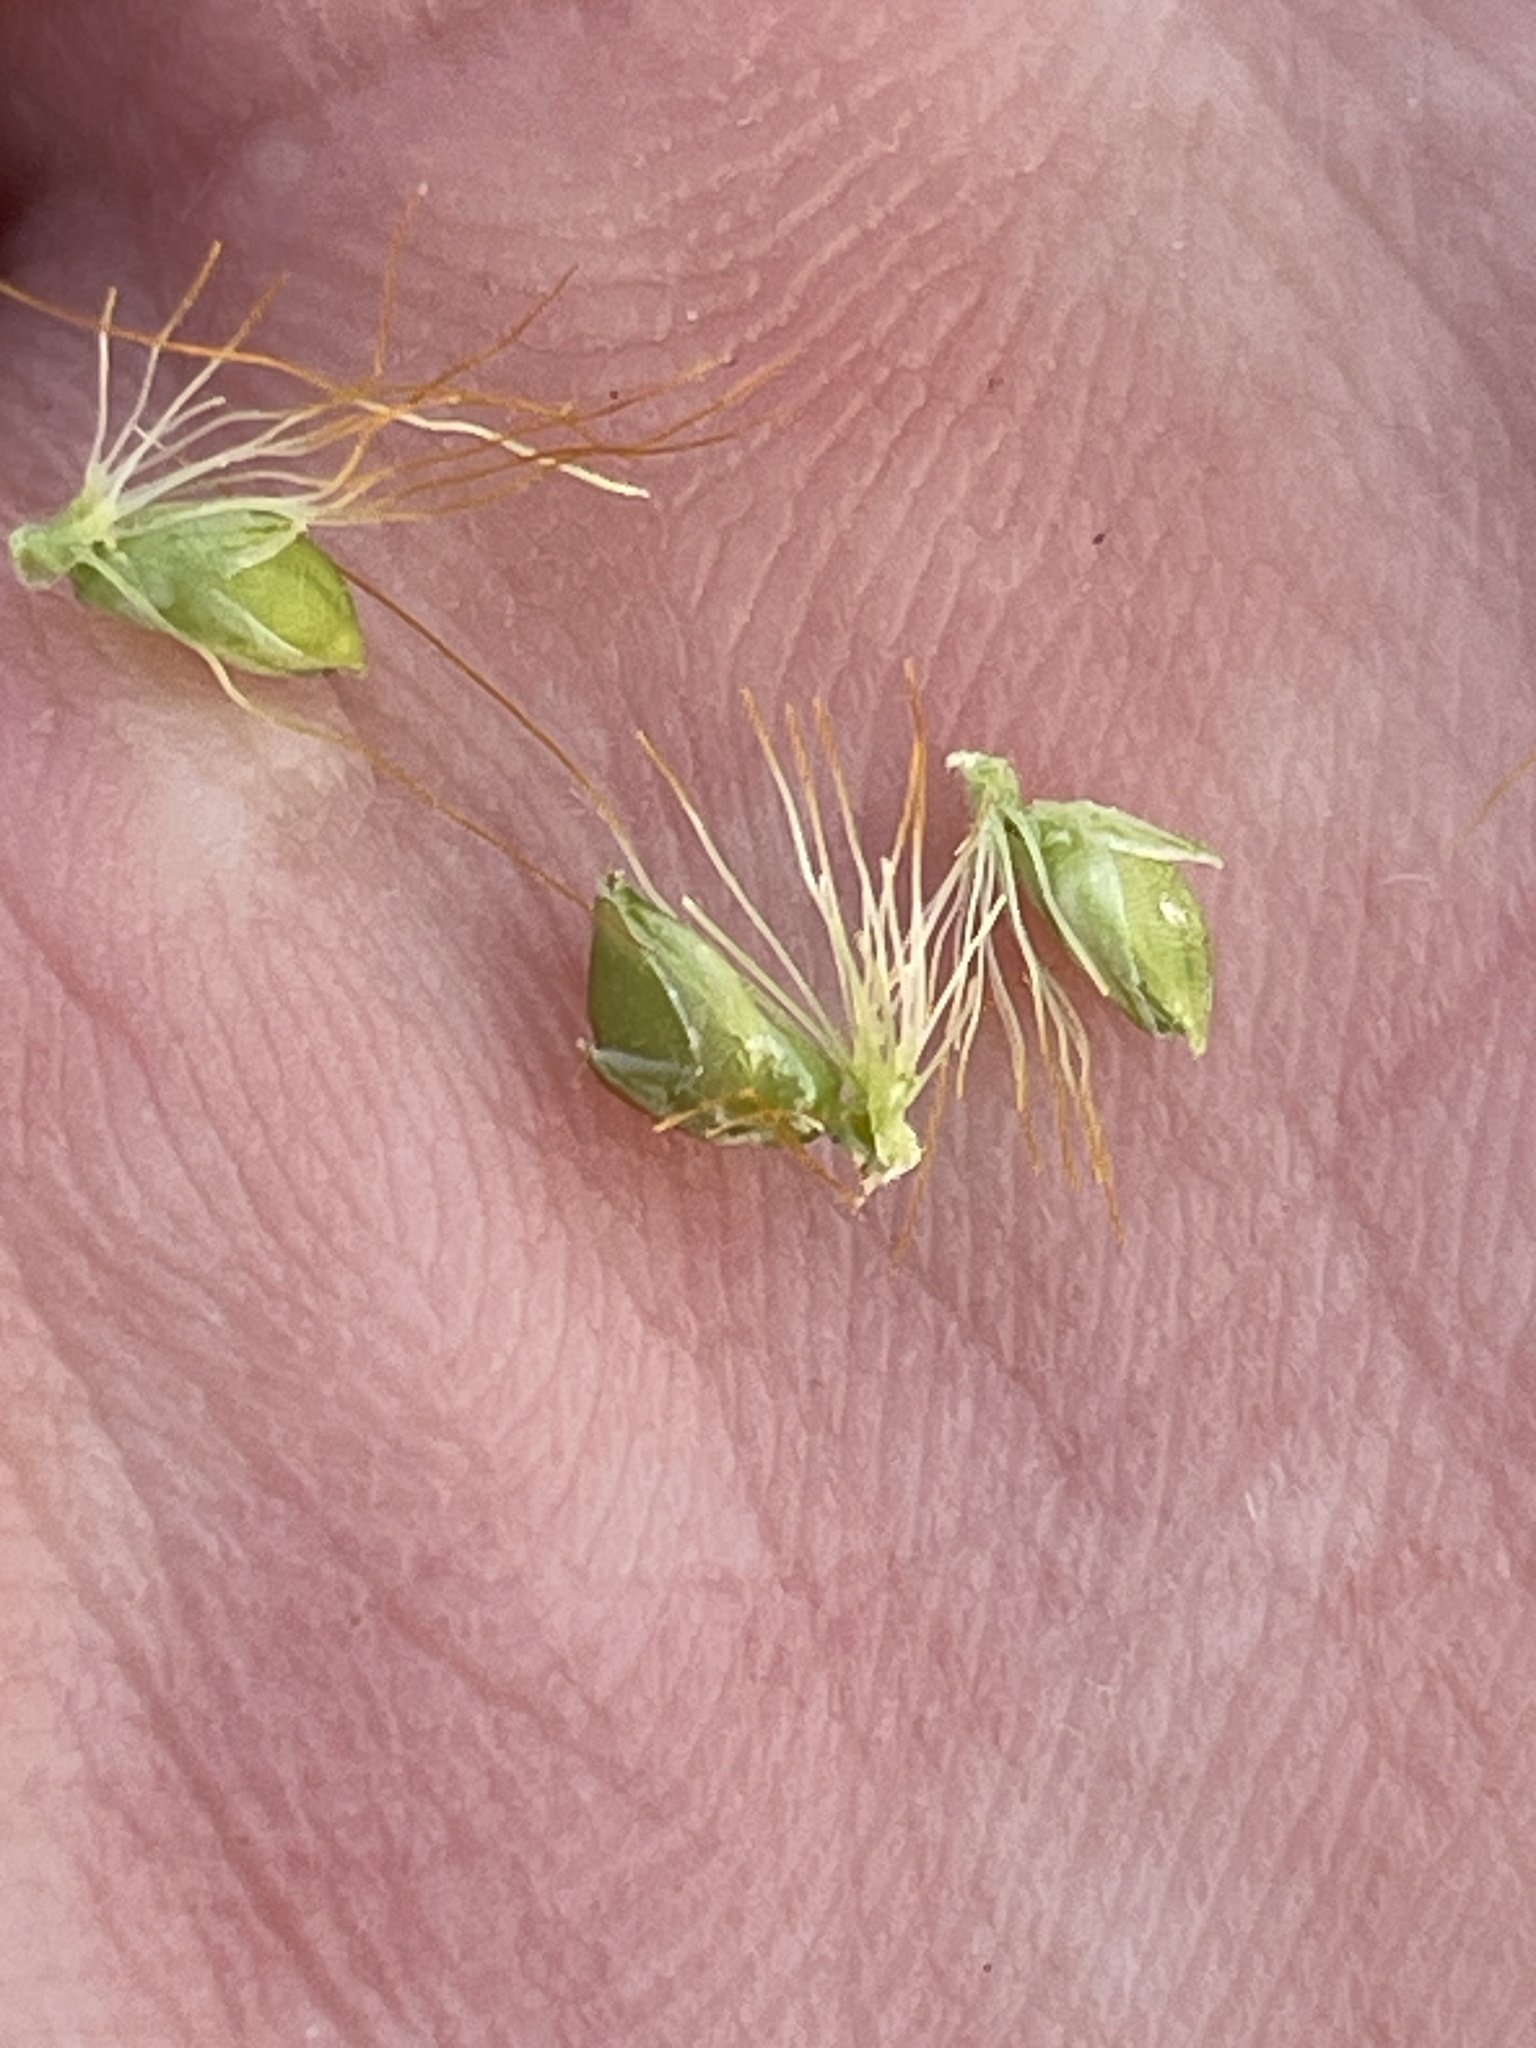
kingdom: Plantae
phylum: Tracheophyta
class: Liliopsida
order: Poales
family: Poaceae
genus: Setaria
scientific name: Setaria pumila
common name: Yellow bristle-grass
